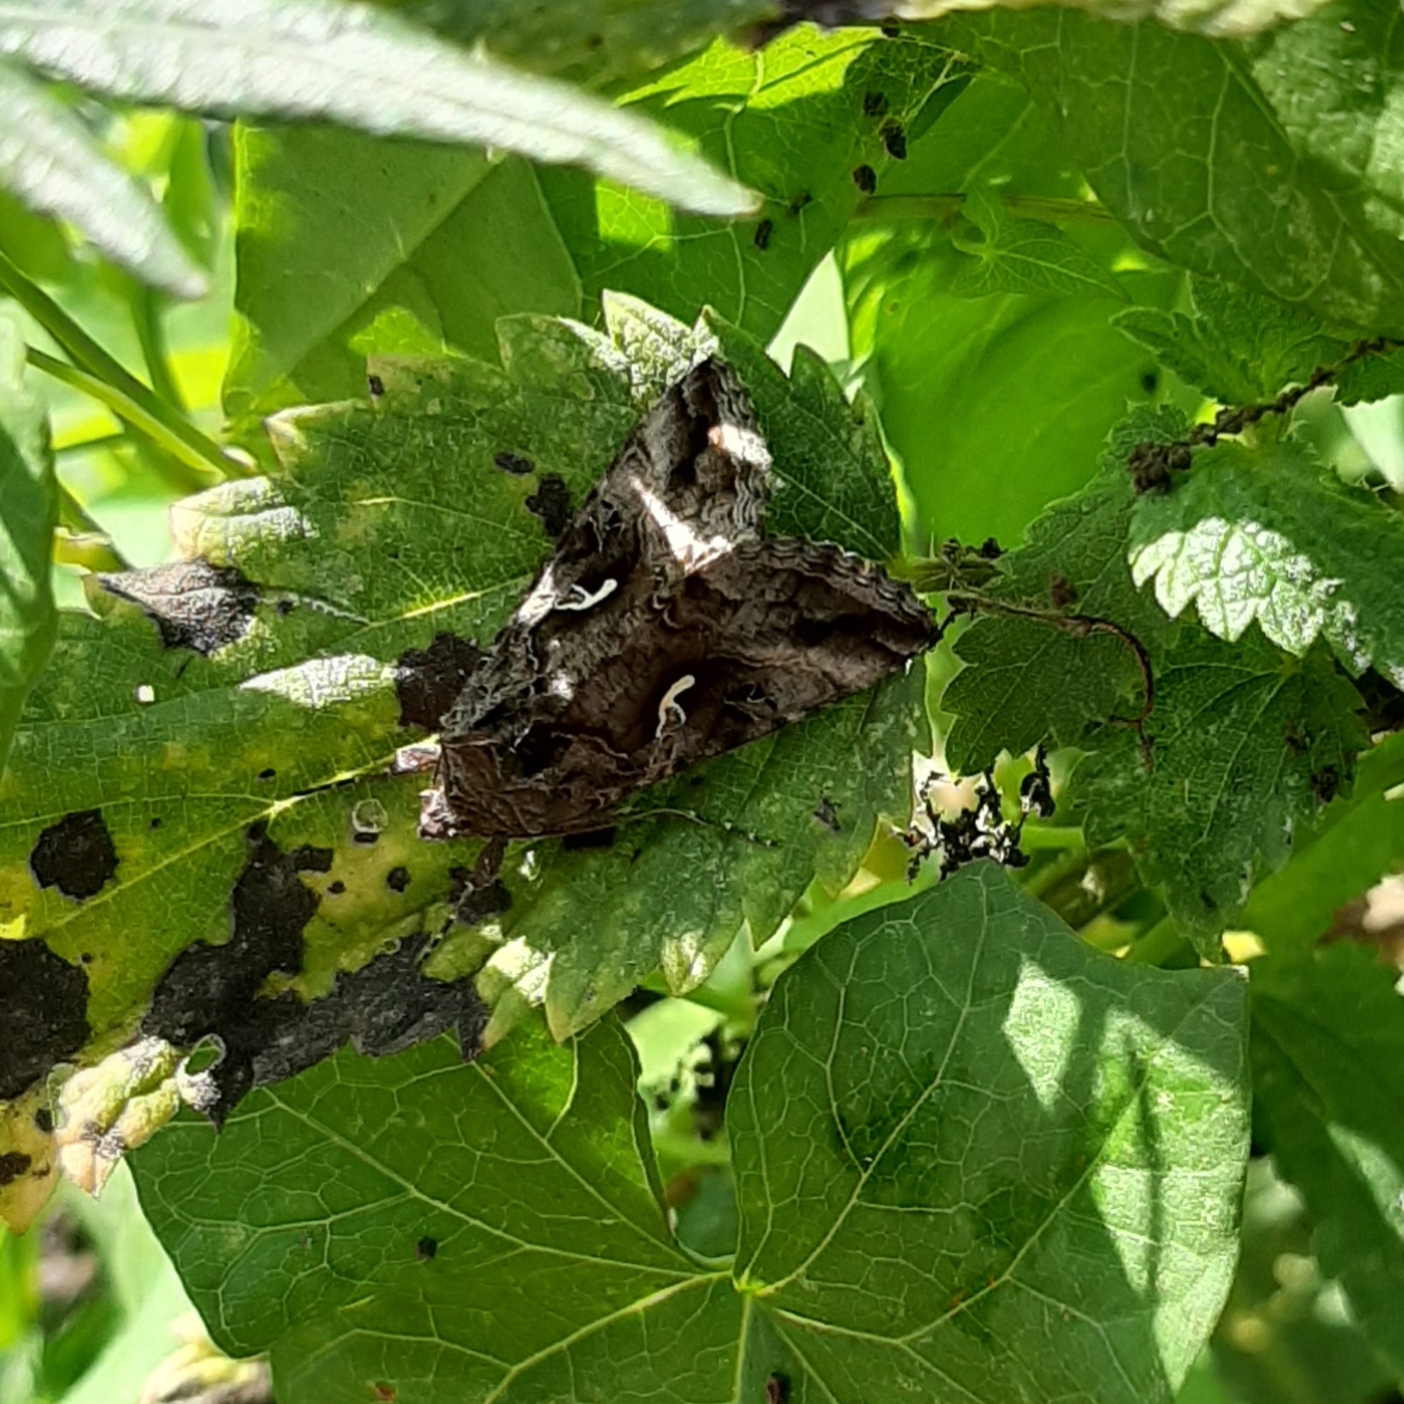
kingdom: Animalia
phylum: Arthropoda
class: Insecta
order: Lepidoptera
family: Noctuidae
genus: Autographa
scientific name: Autographa gamma
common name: Silver y
